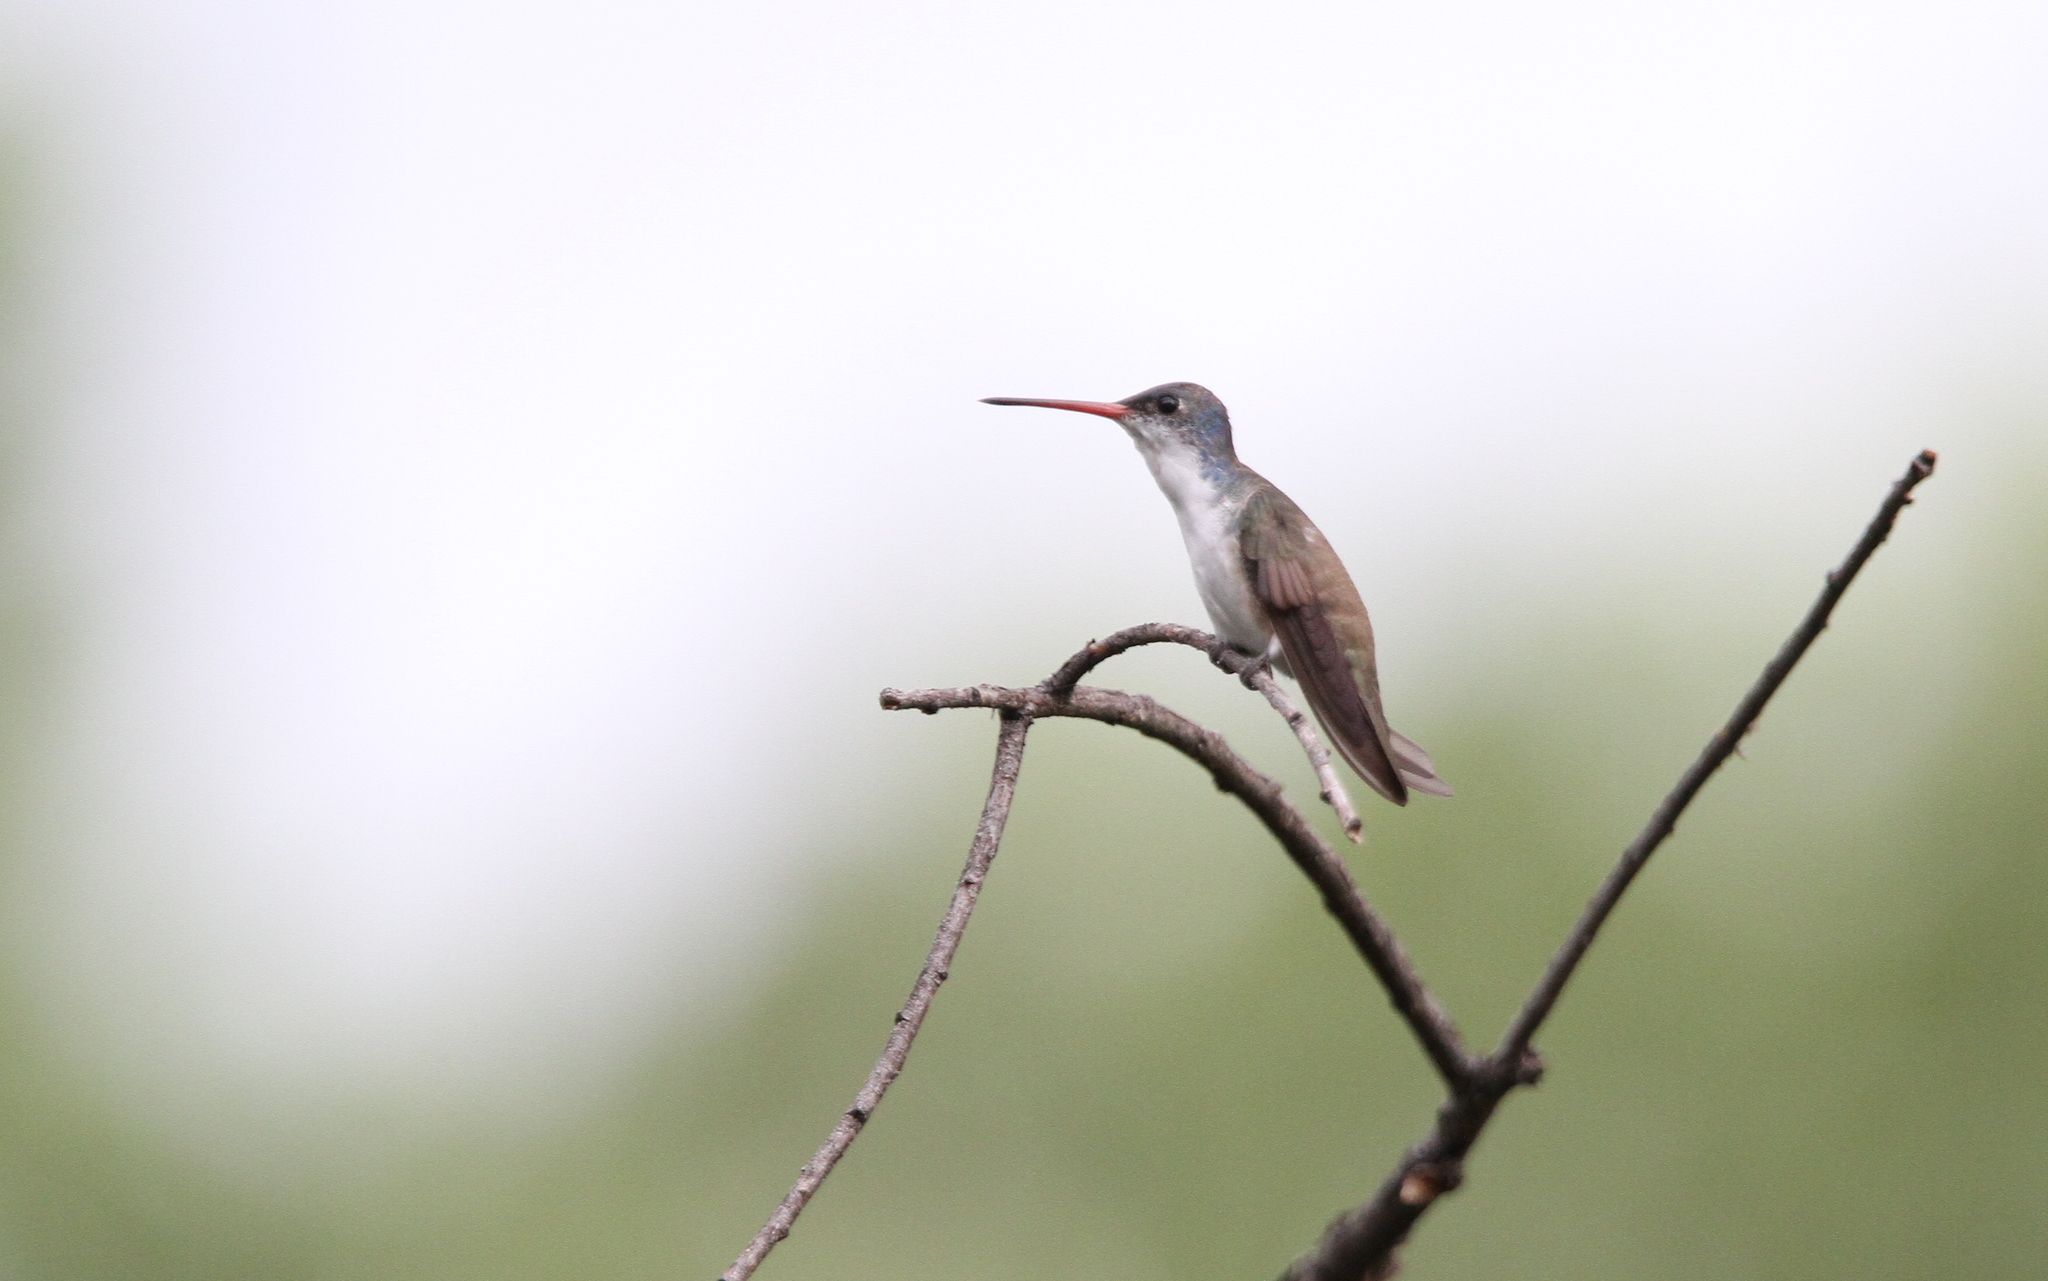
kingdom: Animalia
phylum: Chordata
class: Aves
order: Apodiformes
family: Trochilidae
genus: Leucolia
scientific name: Leucolia violiceps
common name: Violet-crowned hummingbird
